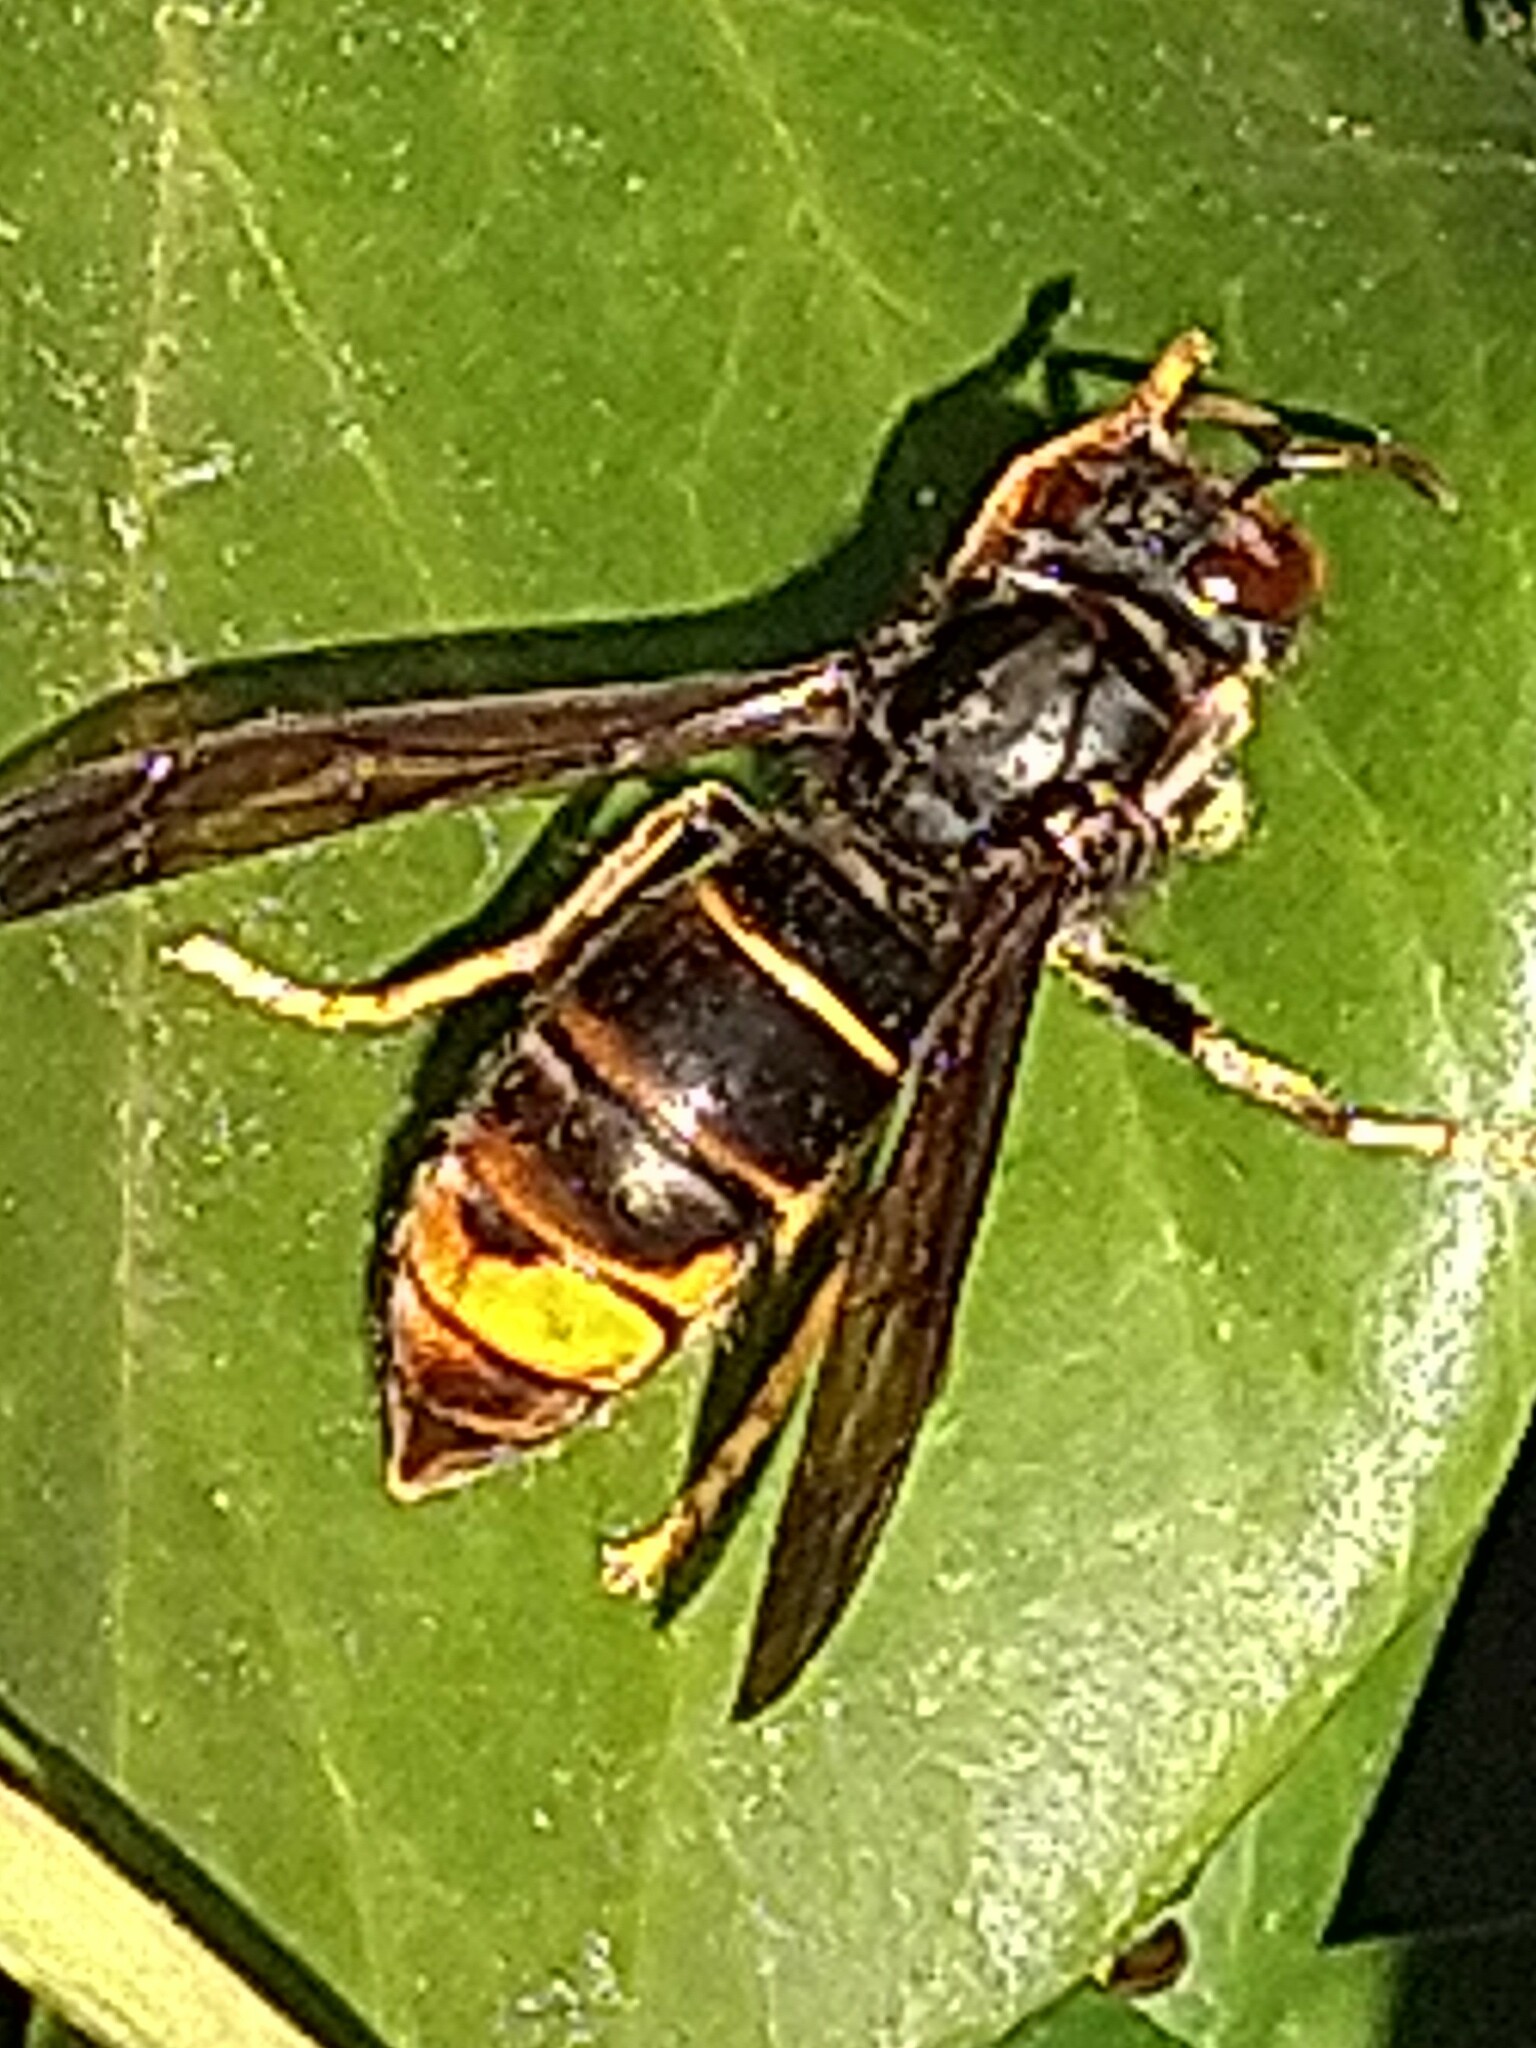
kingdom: Animalia
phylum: Arthropoda
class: Insecta
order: Hymenoptera
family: Vespidae
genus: Vespa
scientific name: Vespa velutina
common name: Asian hornet
